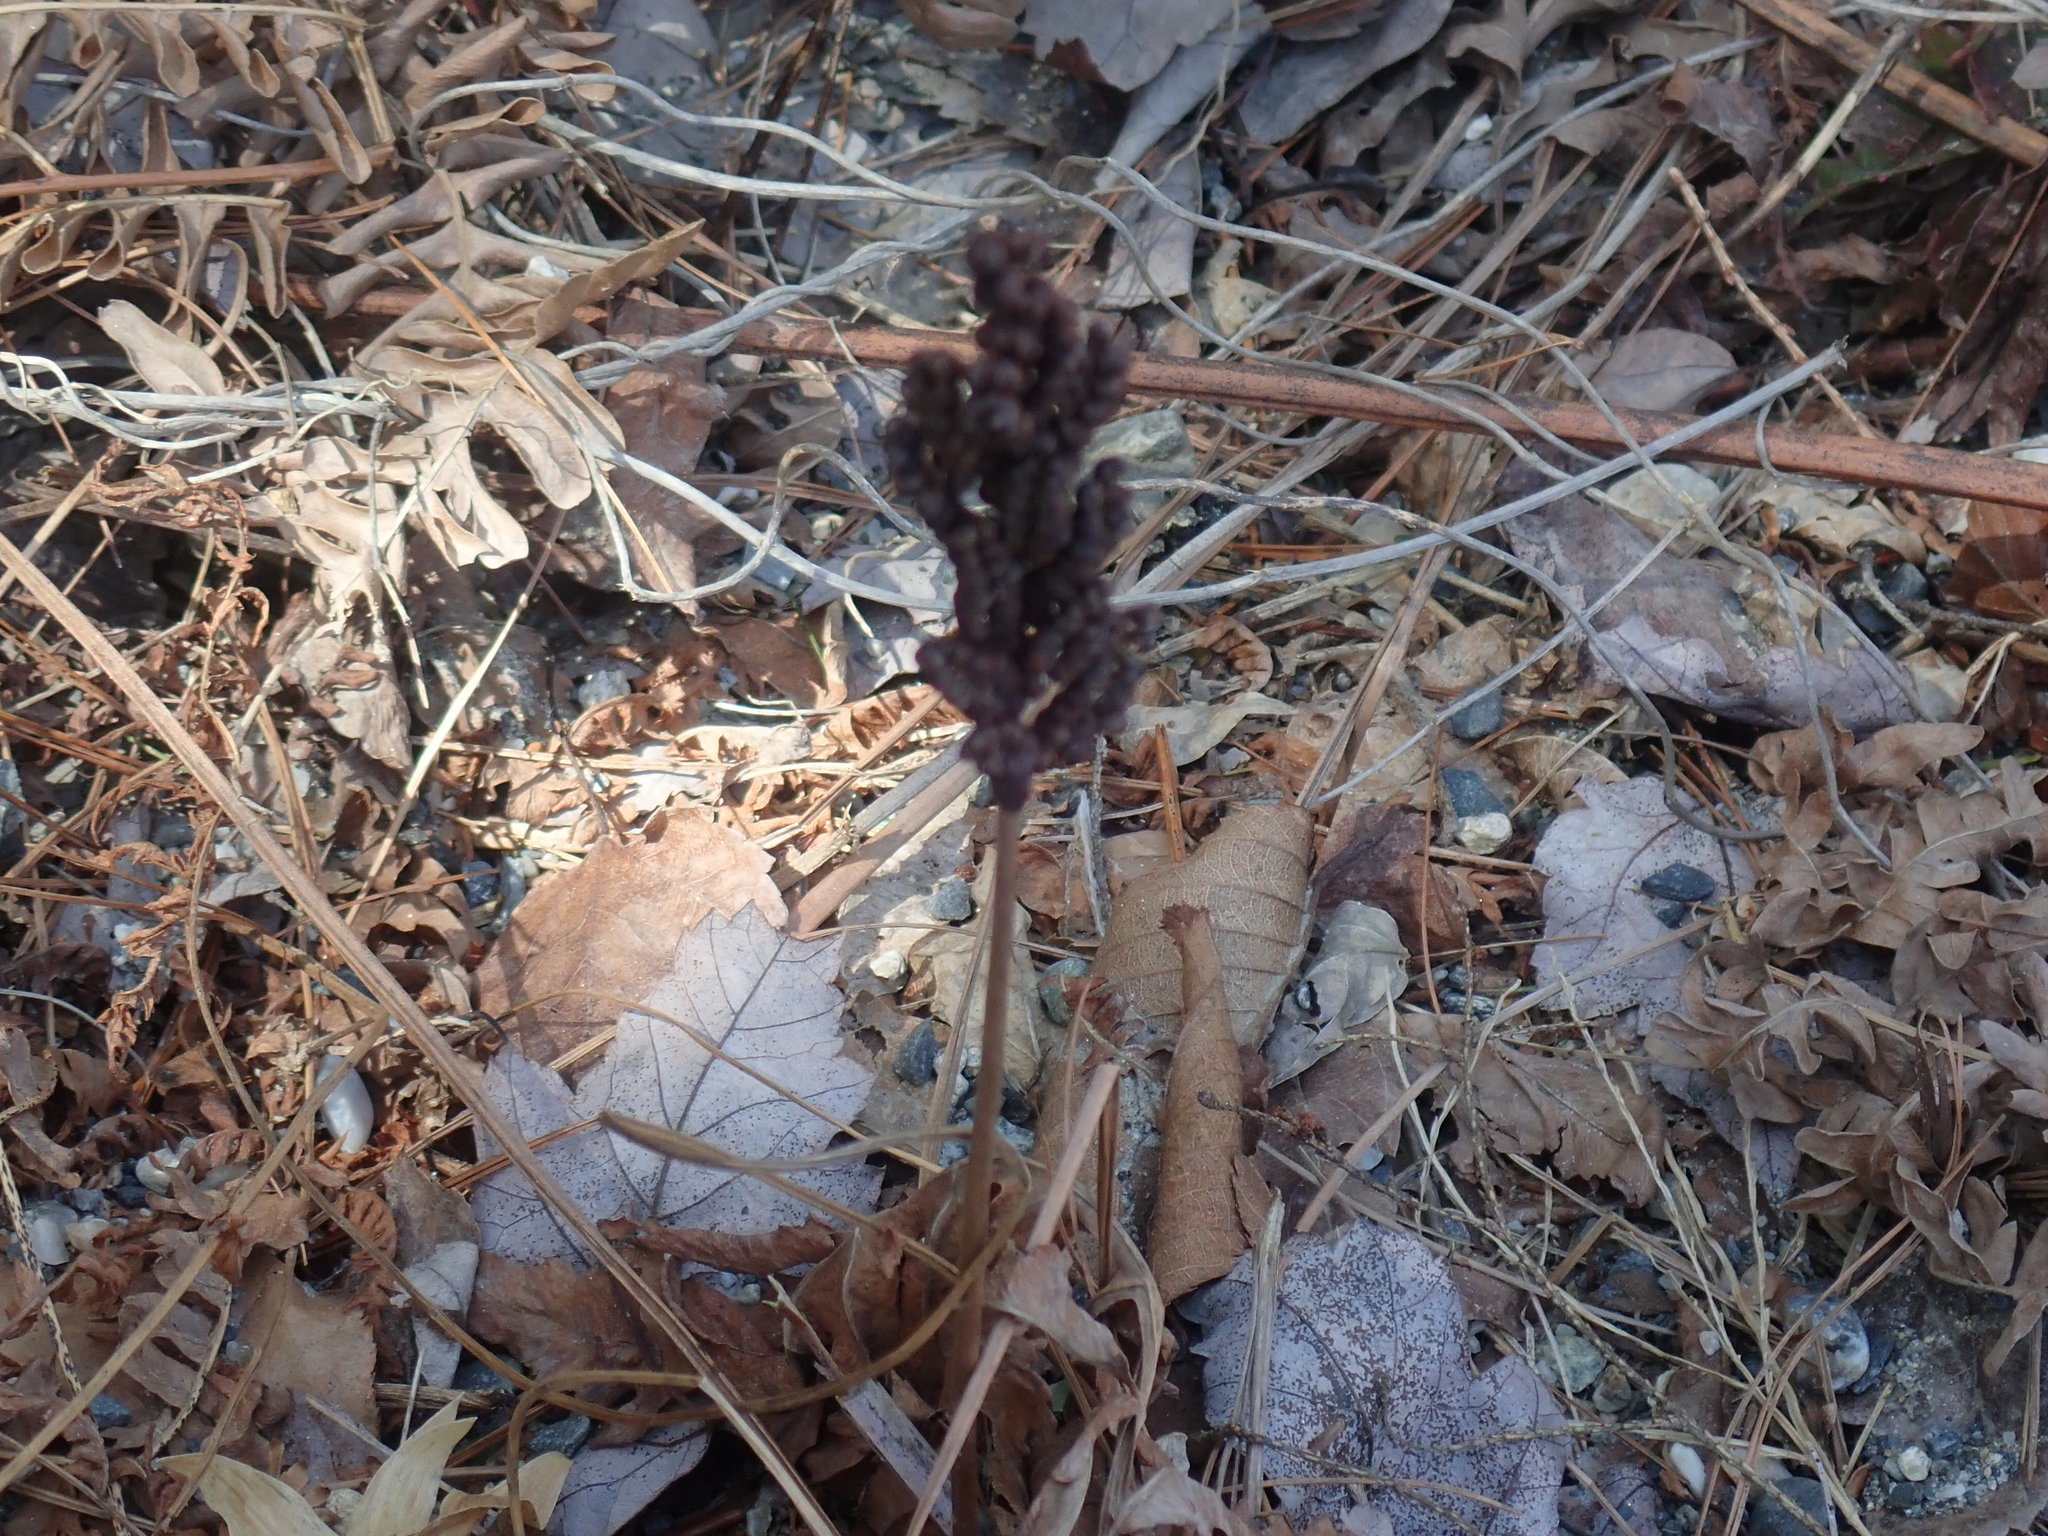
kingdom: Plantae
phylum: Tracheophyta
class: Polypodiopsida
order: Polypodiales
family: Onocleaceae
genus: Onoclea
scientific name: Onoclea sensibilis
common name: Sensitive fern
